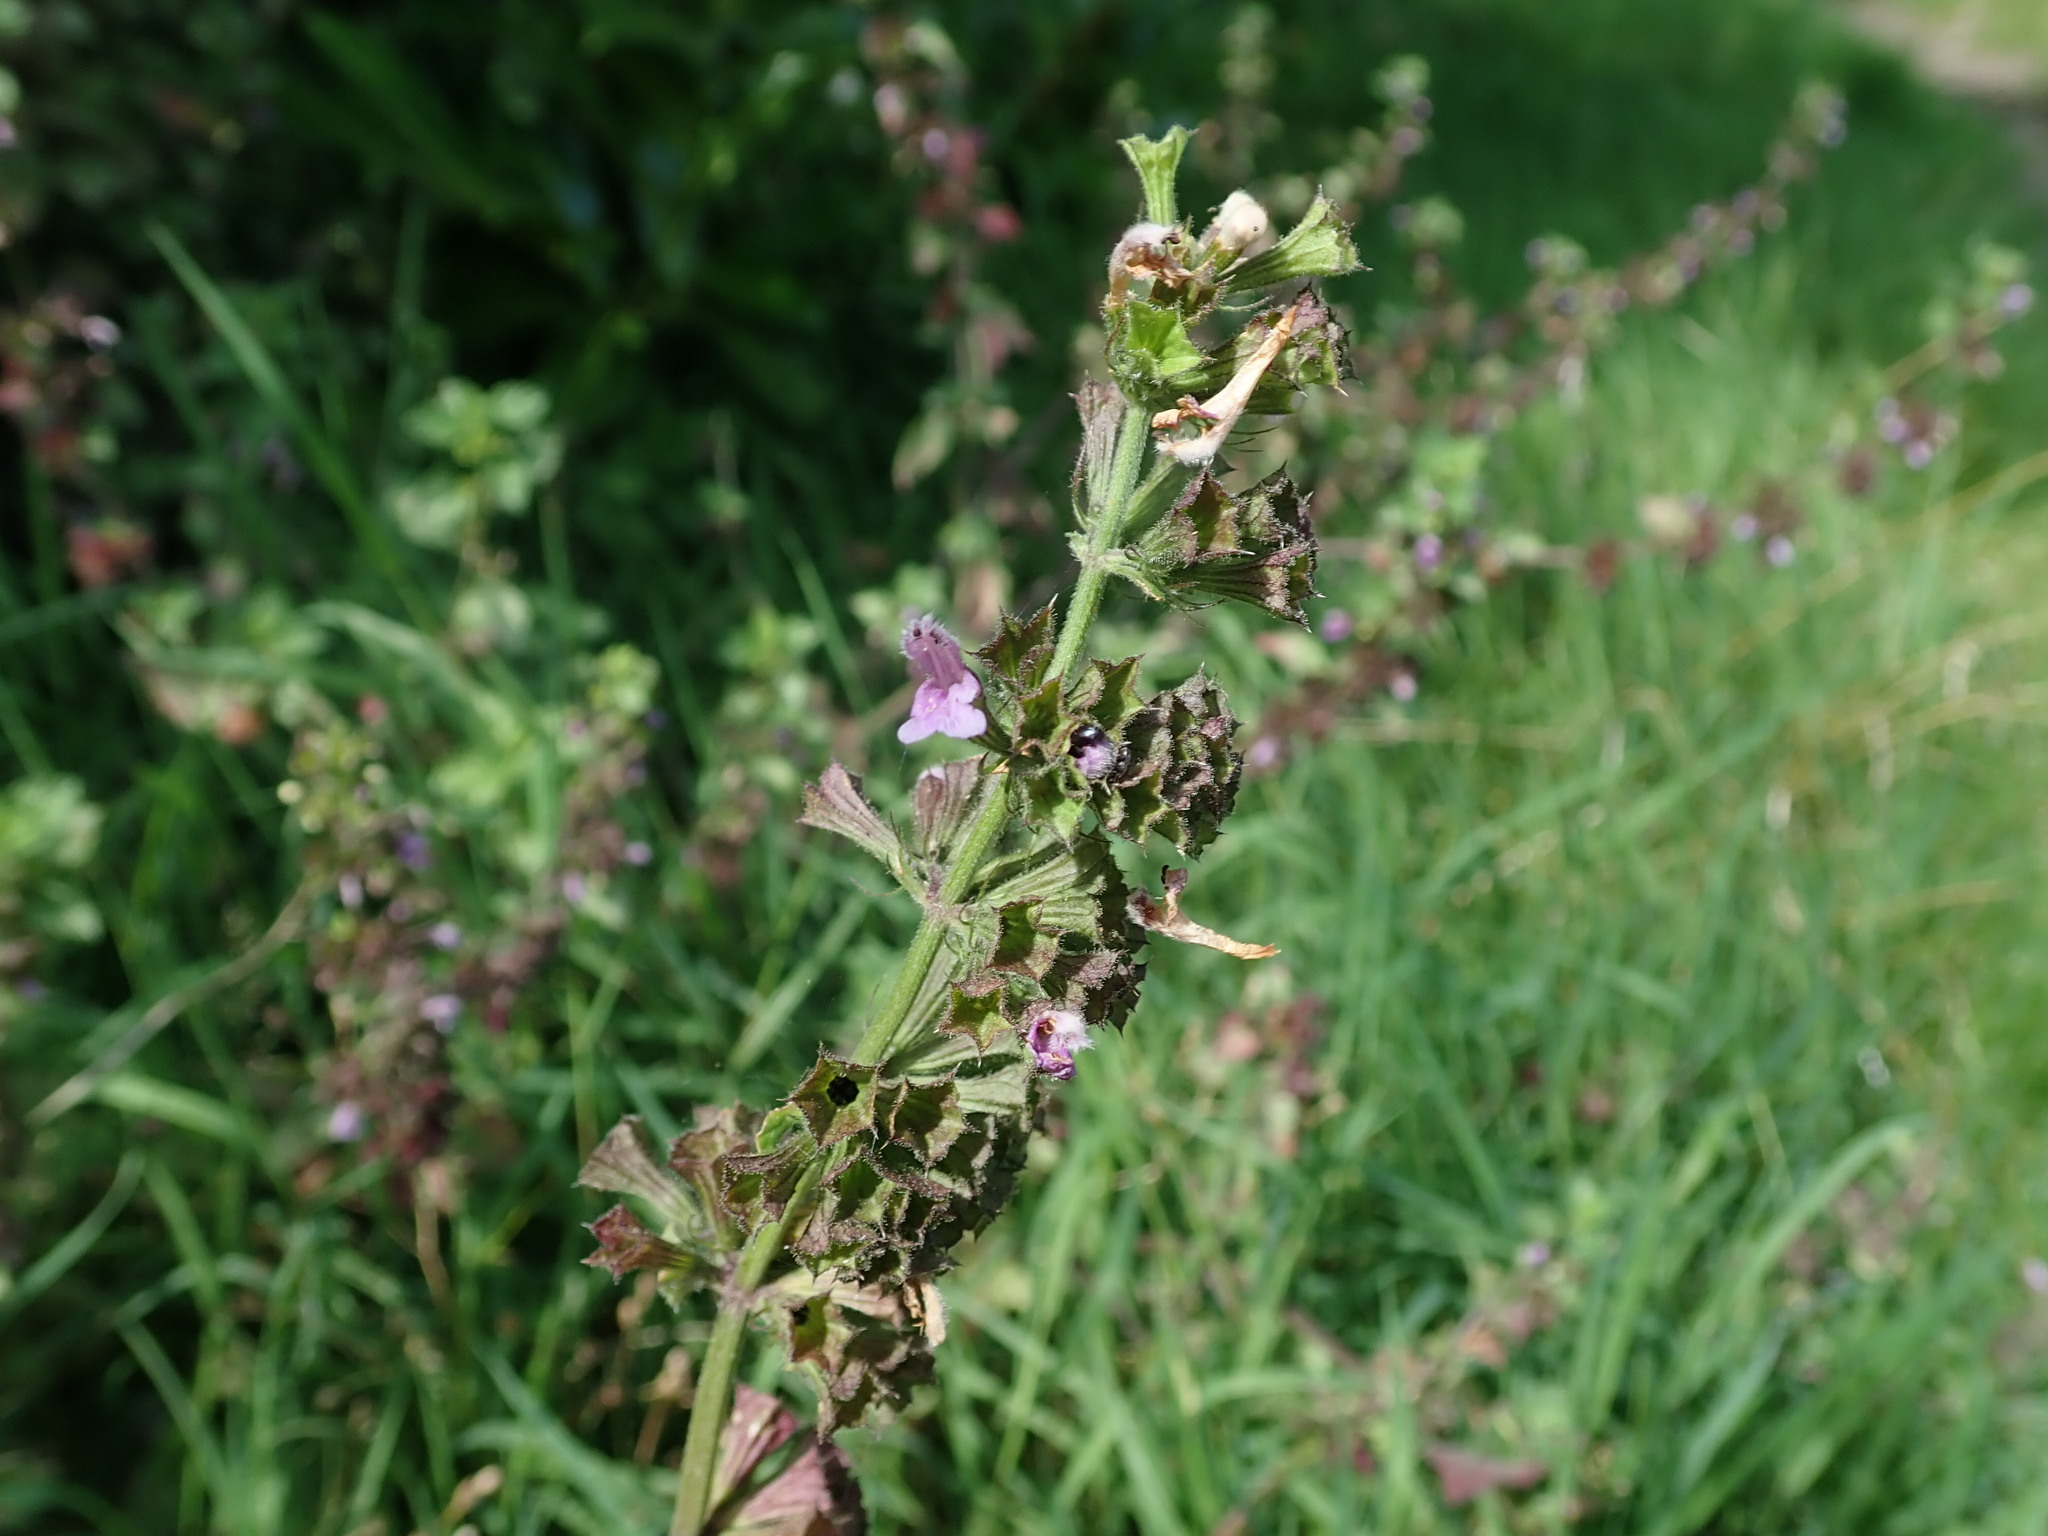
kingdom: Plantae
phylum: Tracheophyta
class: Magnoliopsida
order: Lamiales
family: Lamiaceae
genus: Ballota
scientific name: Ballota nigra
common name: Black horehound
